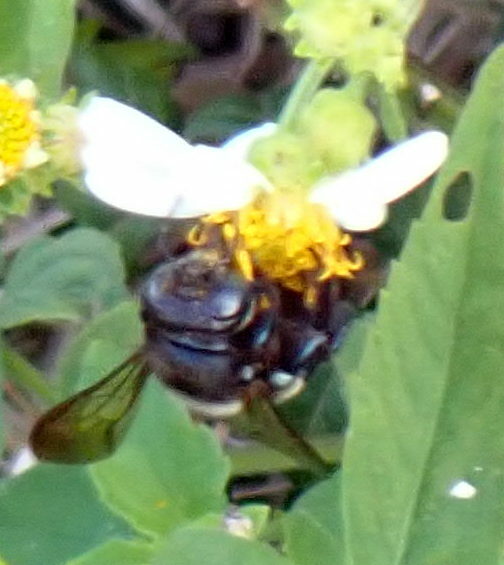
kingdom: Animalia
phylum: Arthropoda
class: Insecta
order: Hymenoptera
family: Apidae
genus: Xylocopa
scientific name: Xylocopa micans
